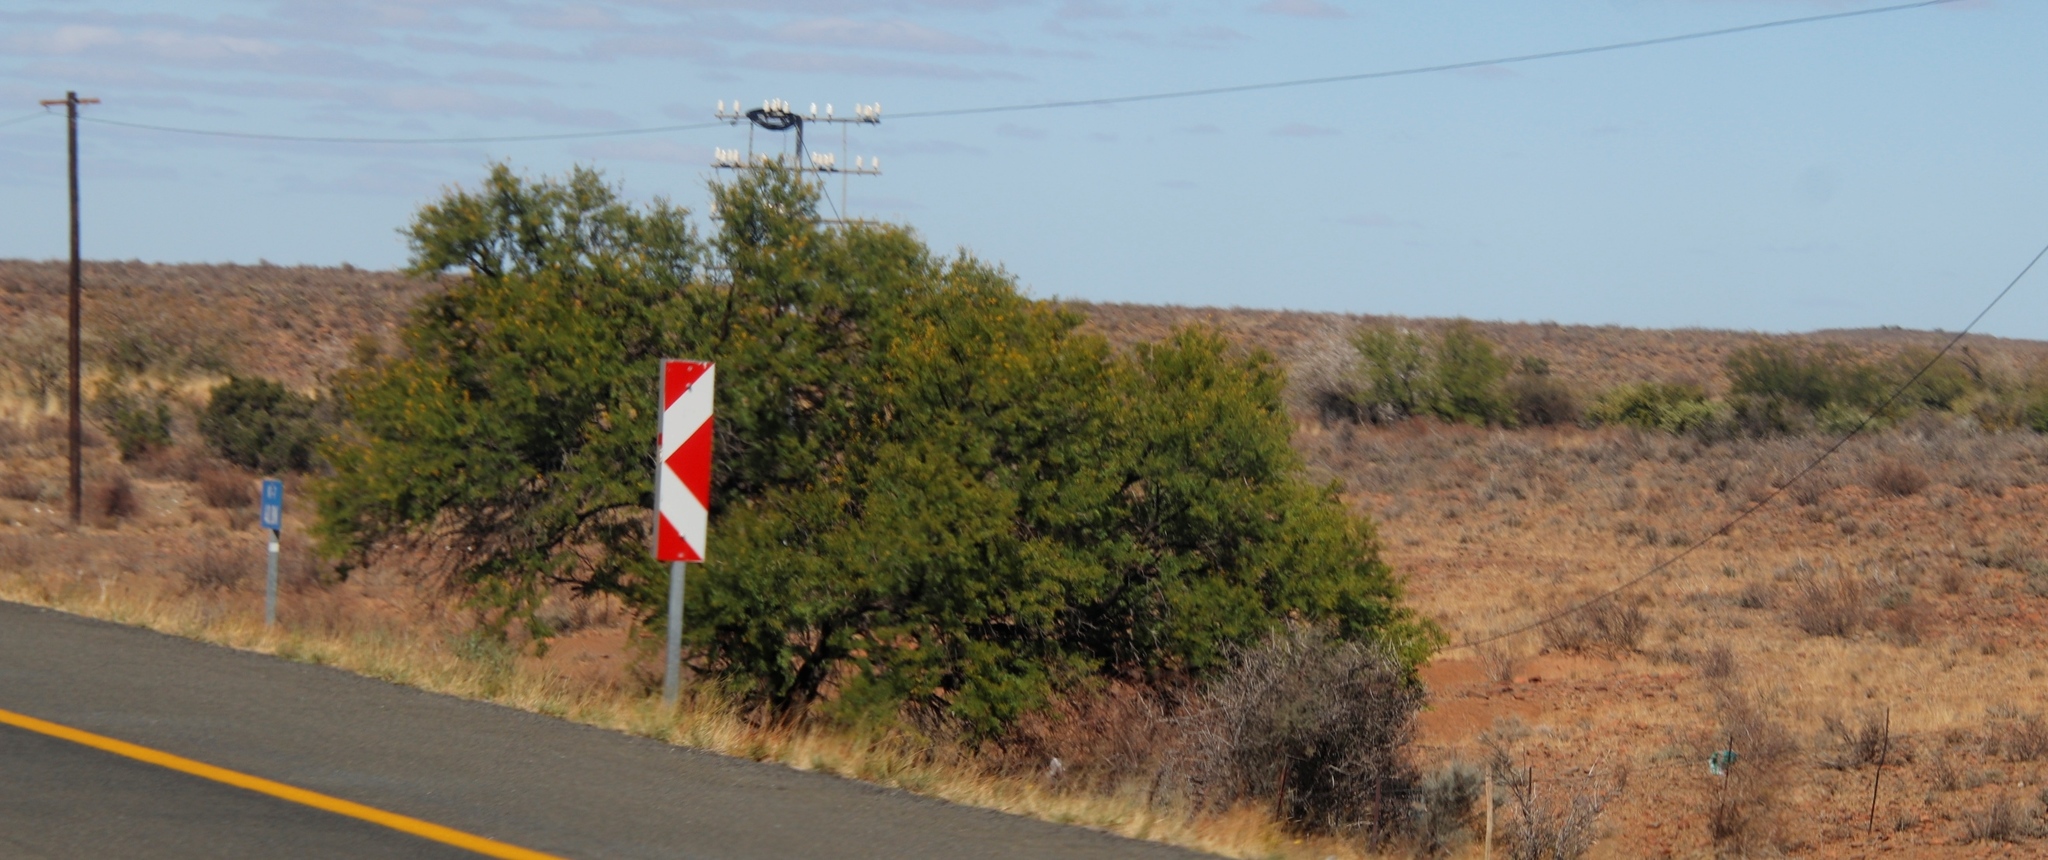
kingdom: Plantae
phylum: Tracheophyta
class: Magnoliopsida
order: Fabales
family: Fabaceae
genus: Vachellia
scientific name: Vachellia karroo
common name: Sweet thorn
